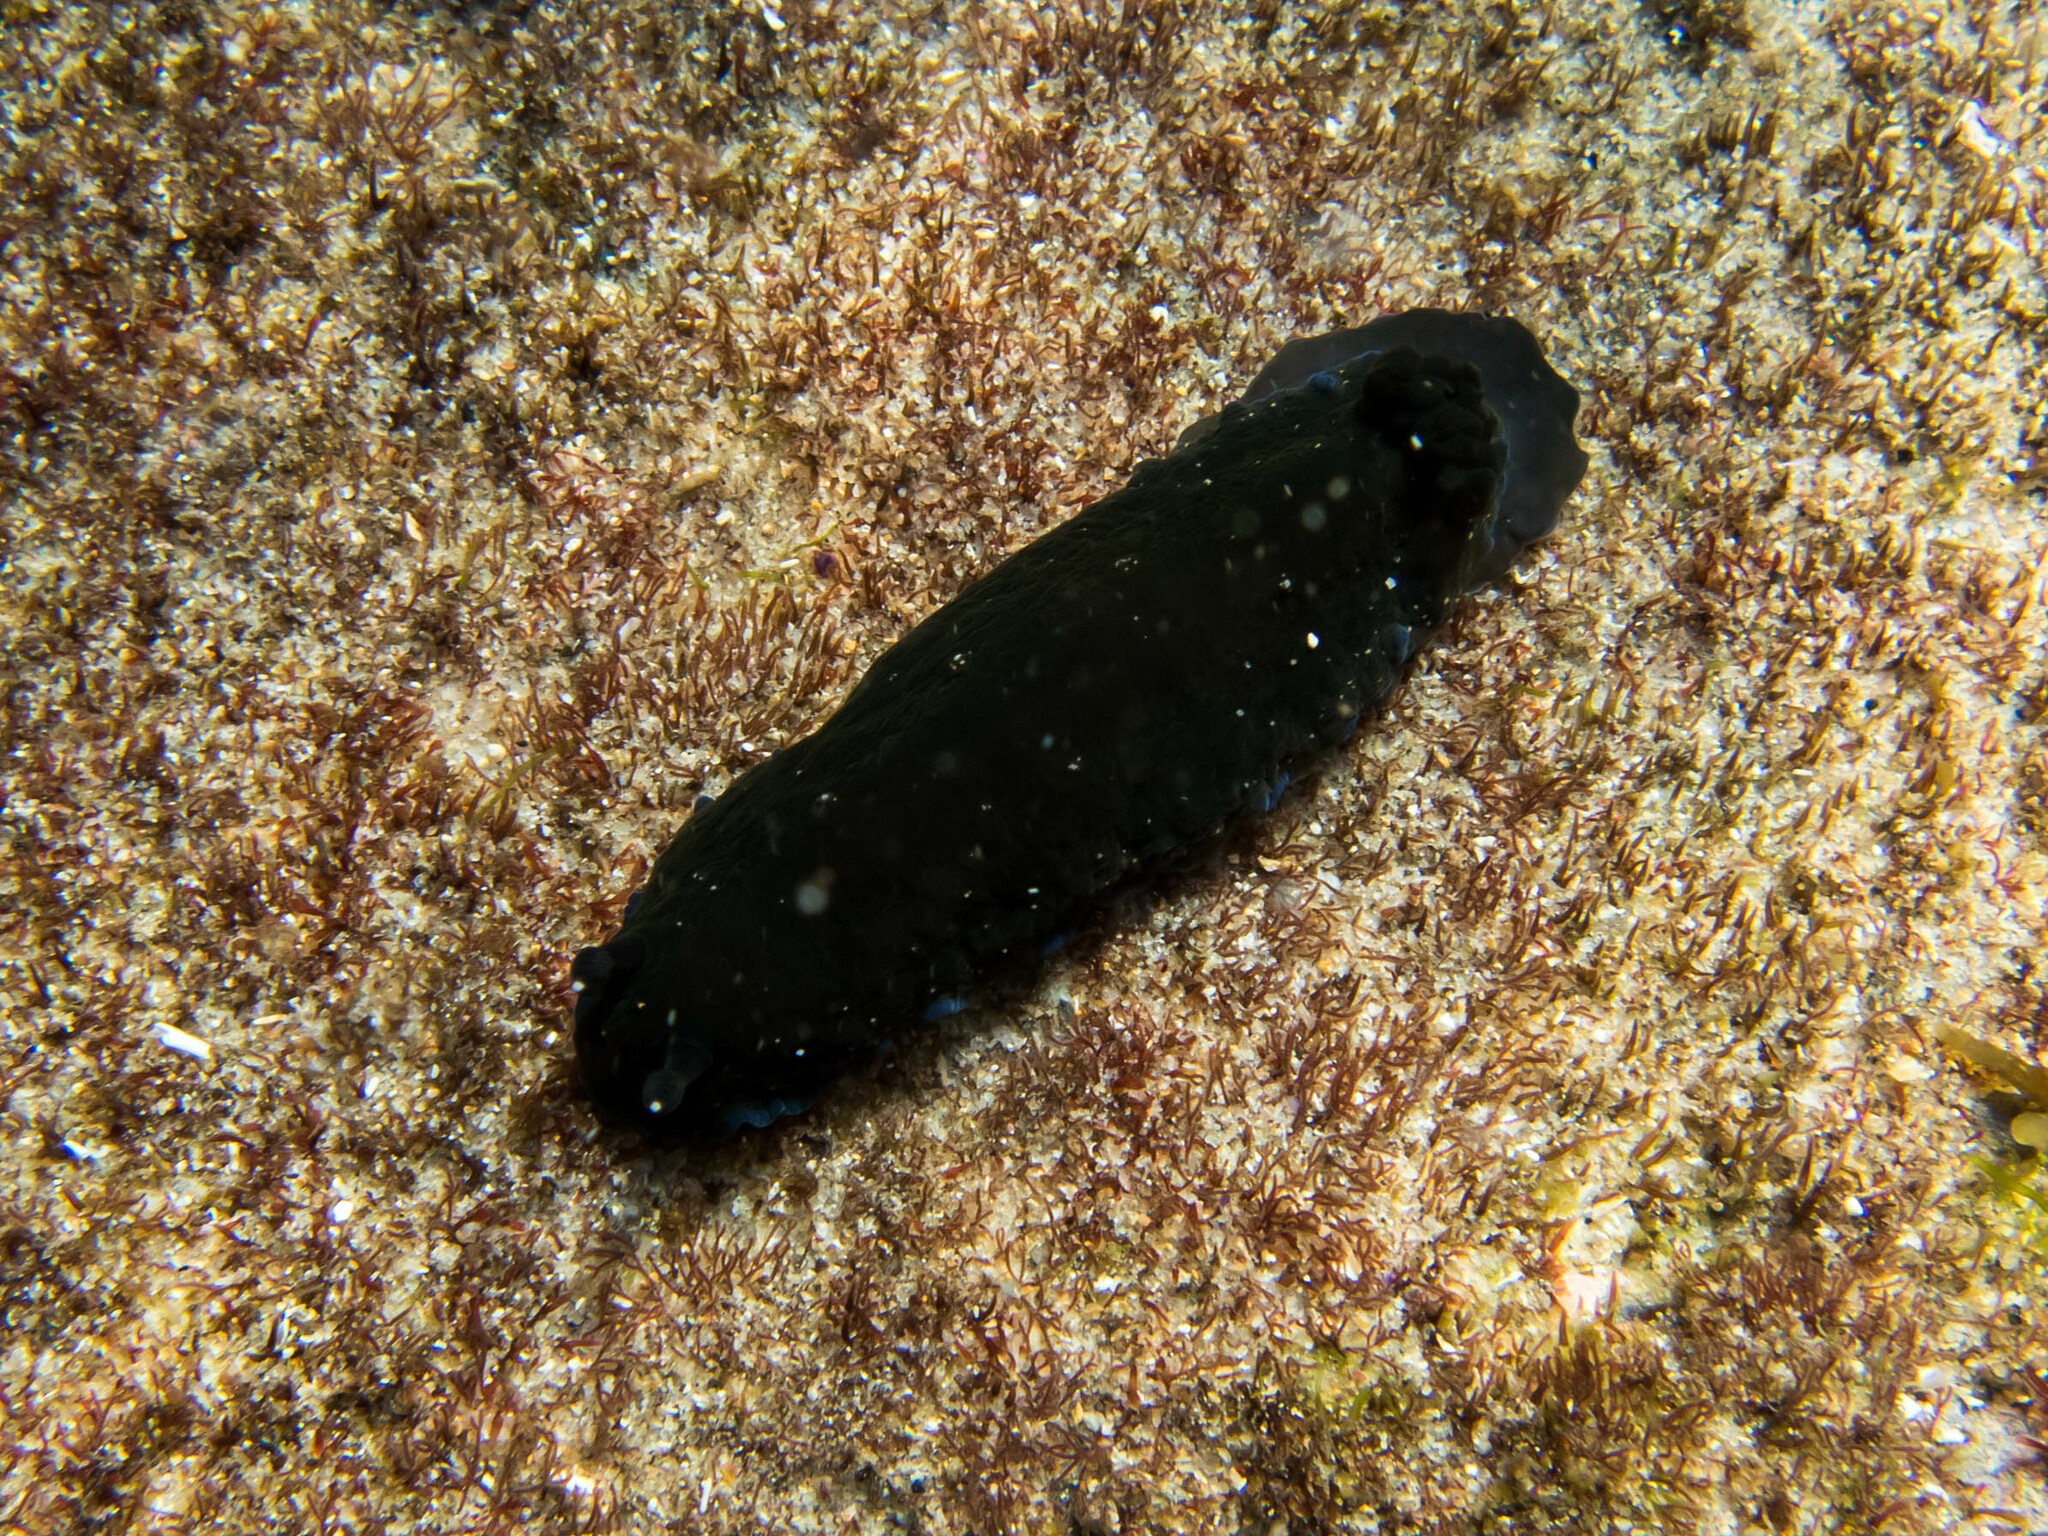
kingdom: Animalia
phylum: Mollusca
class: Gastropoda
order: Nudibranchia
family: Dendrodorididae
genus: Dendrodoris
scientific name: Dendrodoris nigra
